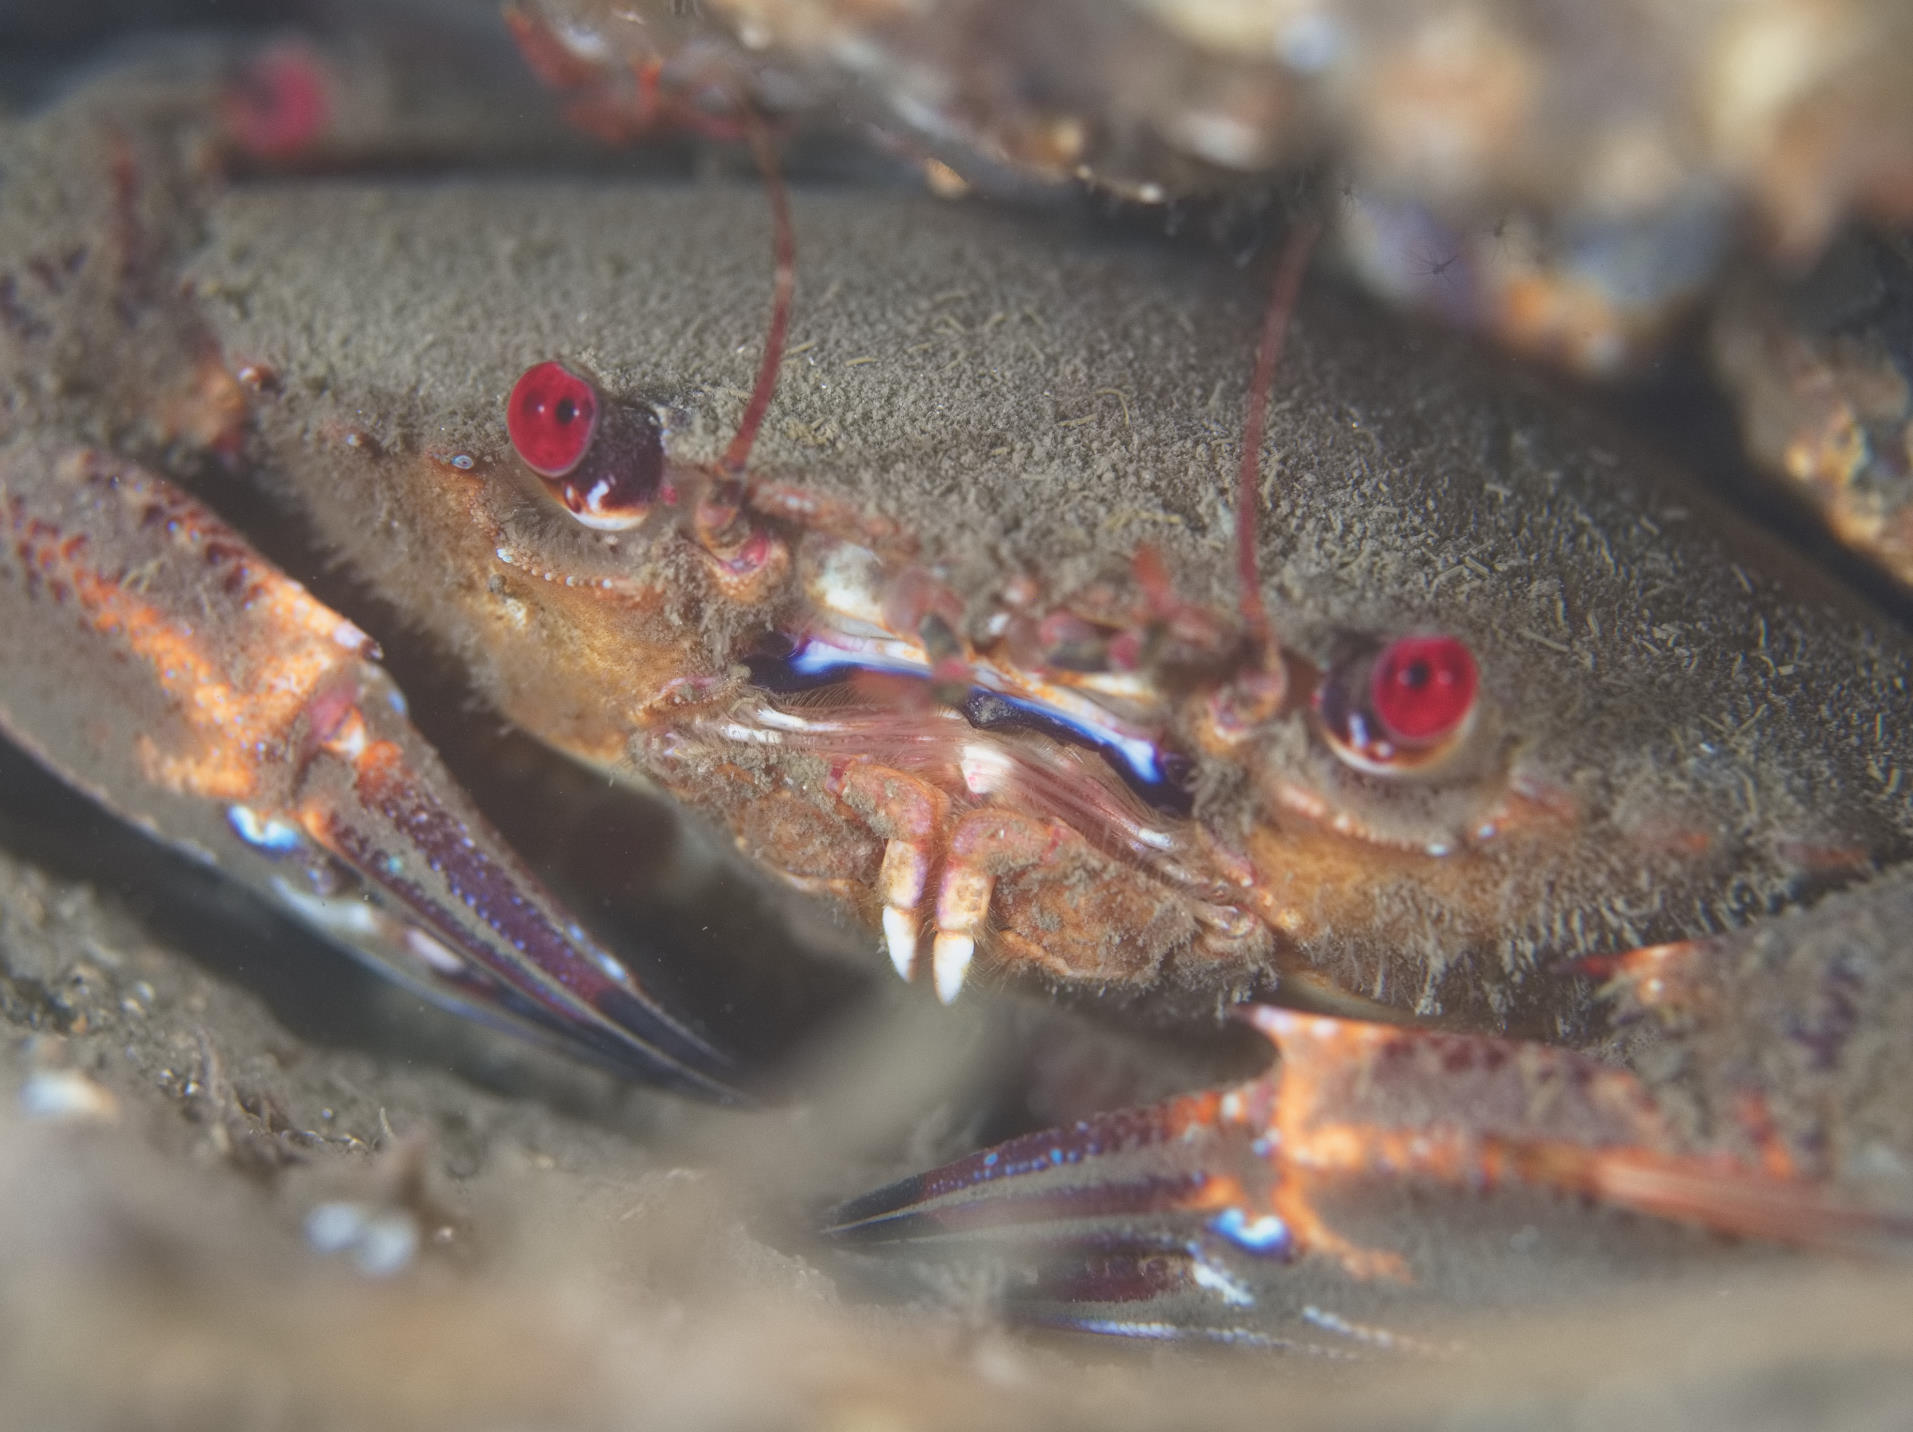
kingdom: Animalia
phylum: Arthropoda
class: Malacostraca
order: Decapoda
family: Polybiidae
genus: Necora
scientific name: Necora puber
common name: Velvet swimming crab
